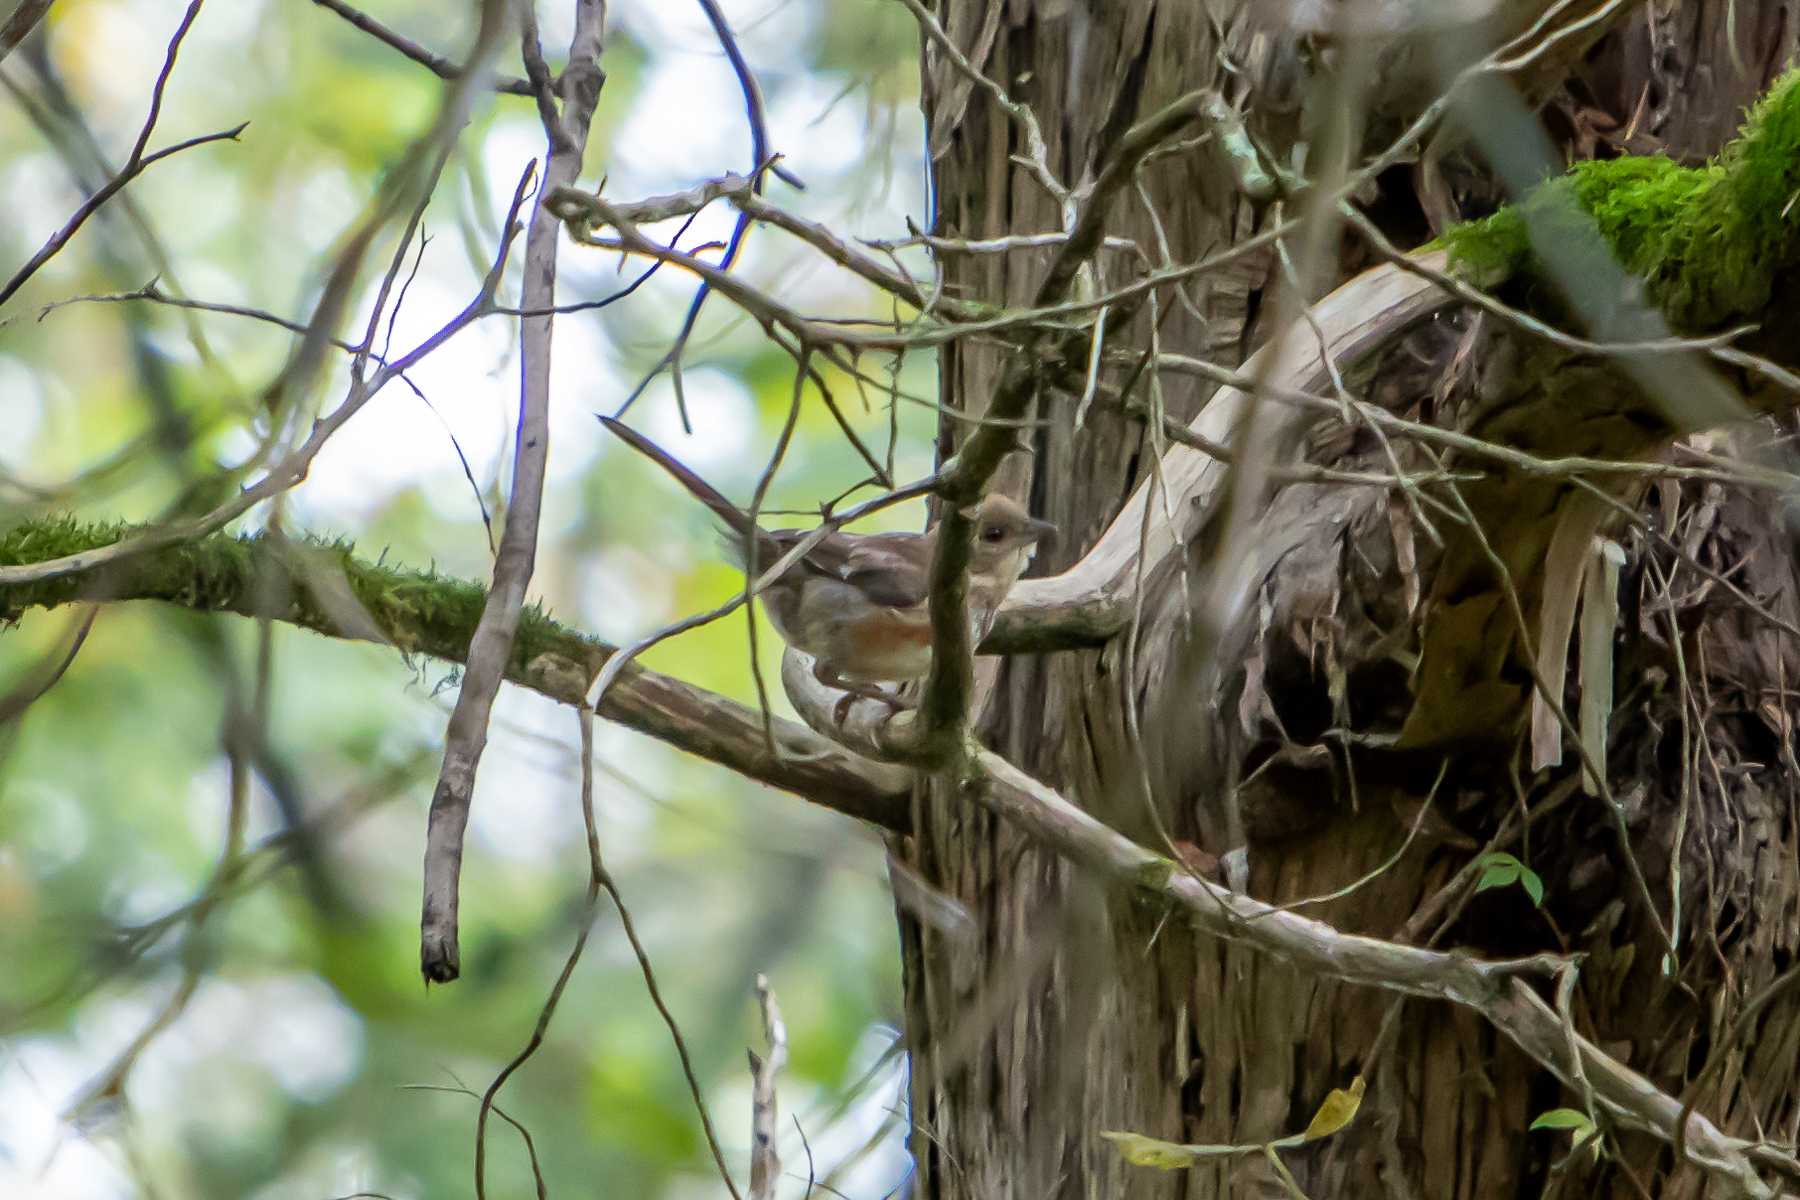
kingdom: Animalia
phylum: Chordata
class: Aves
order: Passeriformes
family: Passerellidae
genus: Pipilo
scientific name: Pipilo erythrophthalmus
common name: Eastern towhee
